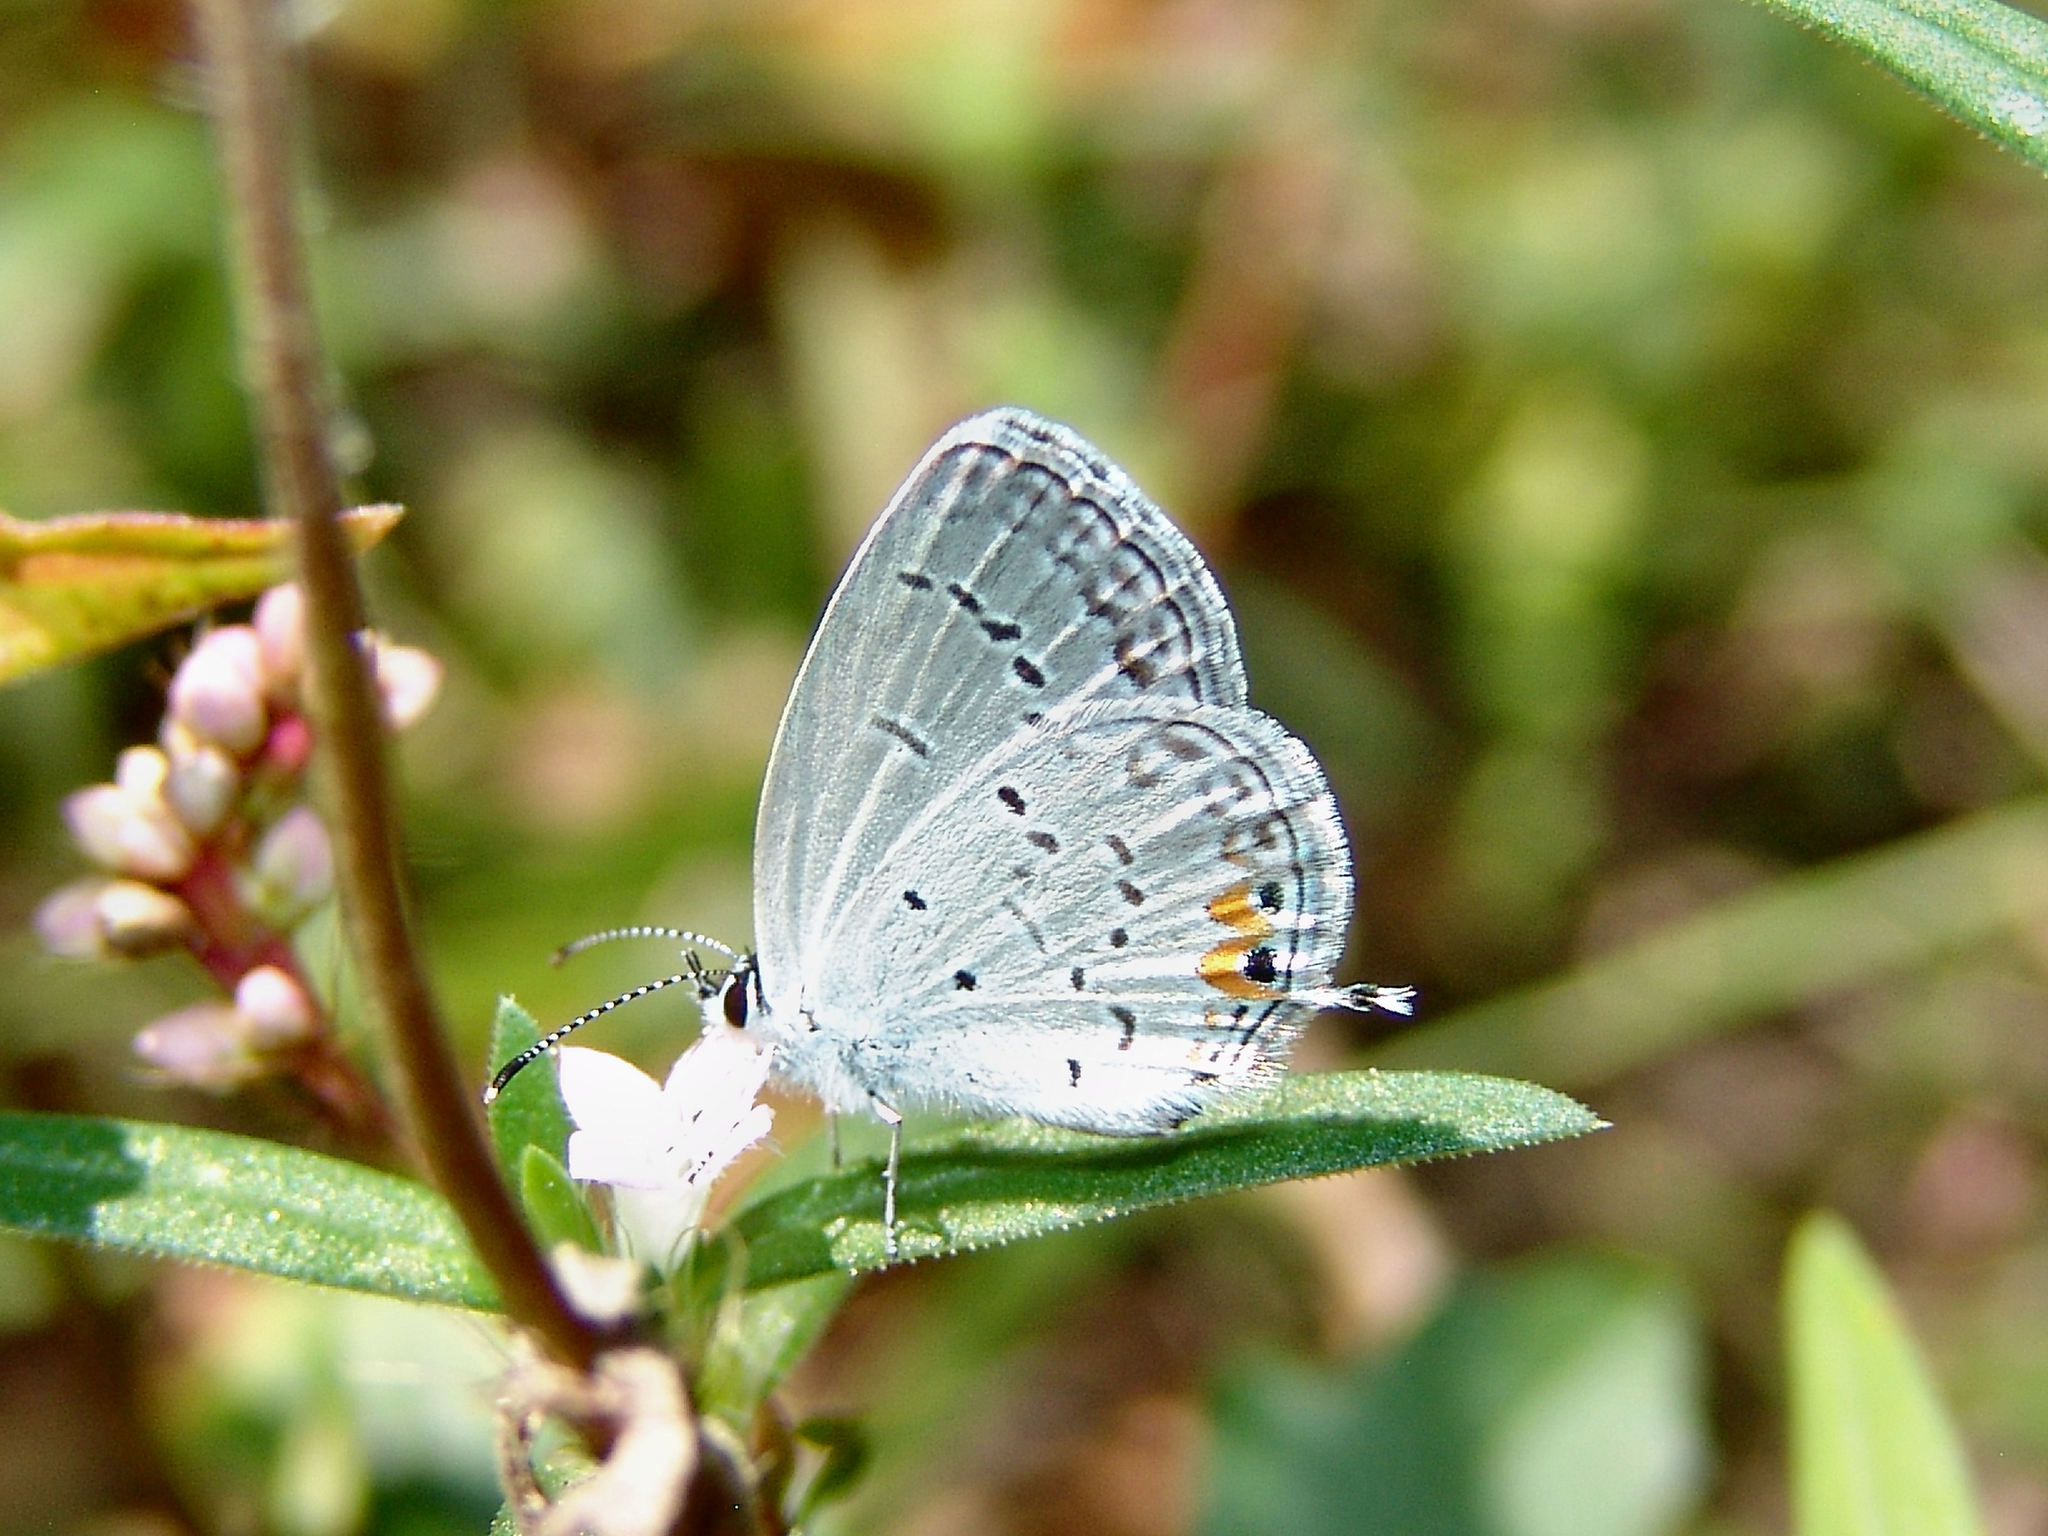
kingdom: Animalia
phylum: Arthropoda
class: Insecta
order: Lepidoptera
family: Lycaenidae
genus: Elkalyce
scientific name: Elkalyce comyntas
